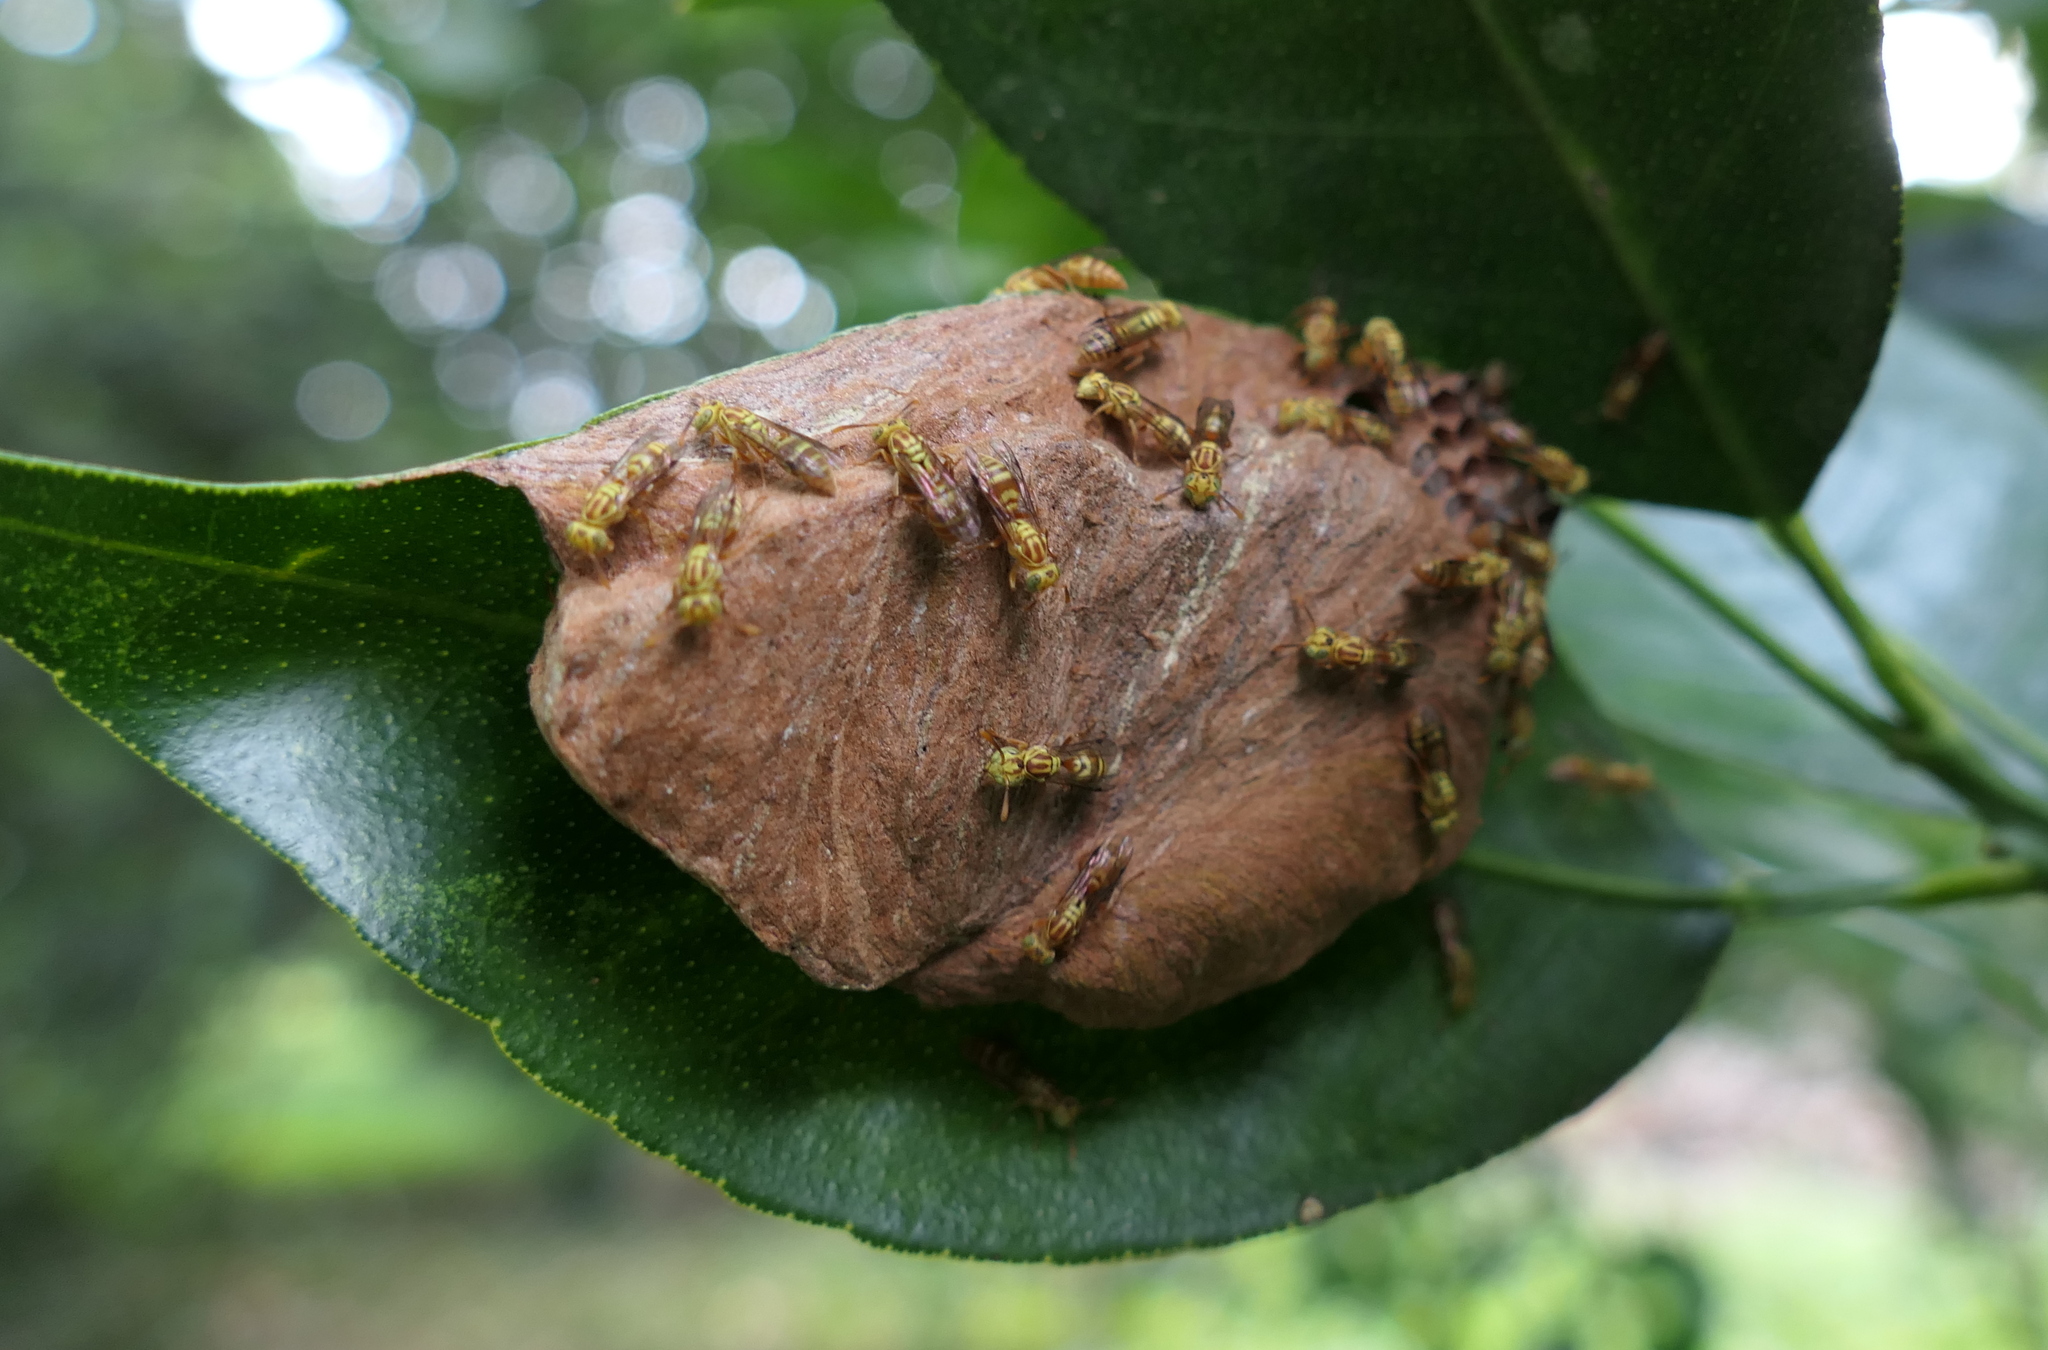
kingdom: Animalia
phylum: Arthropoda
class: Insecta
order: Hymenoptera
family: Vespidae
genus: Protopolybia
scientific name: Protopolybia potiguara
